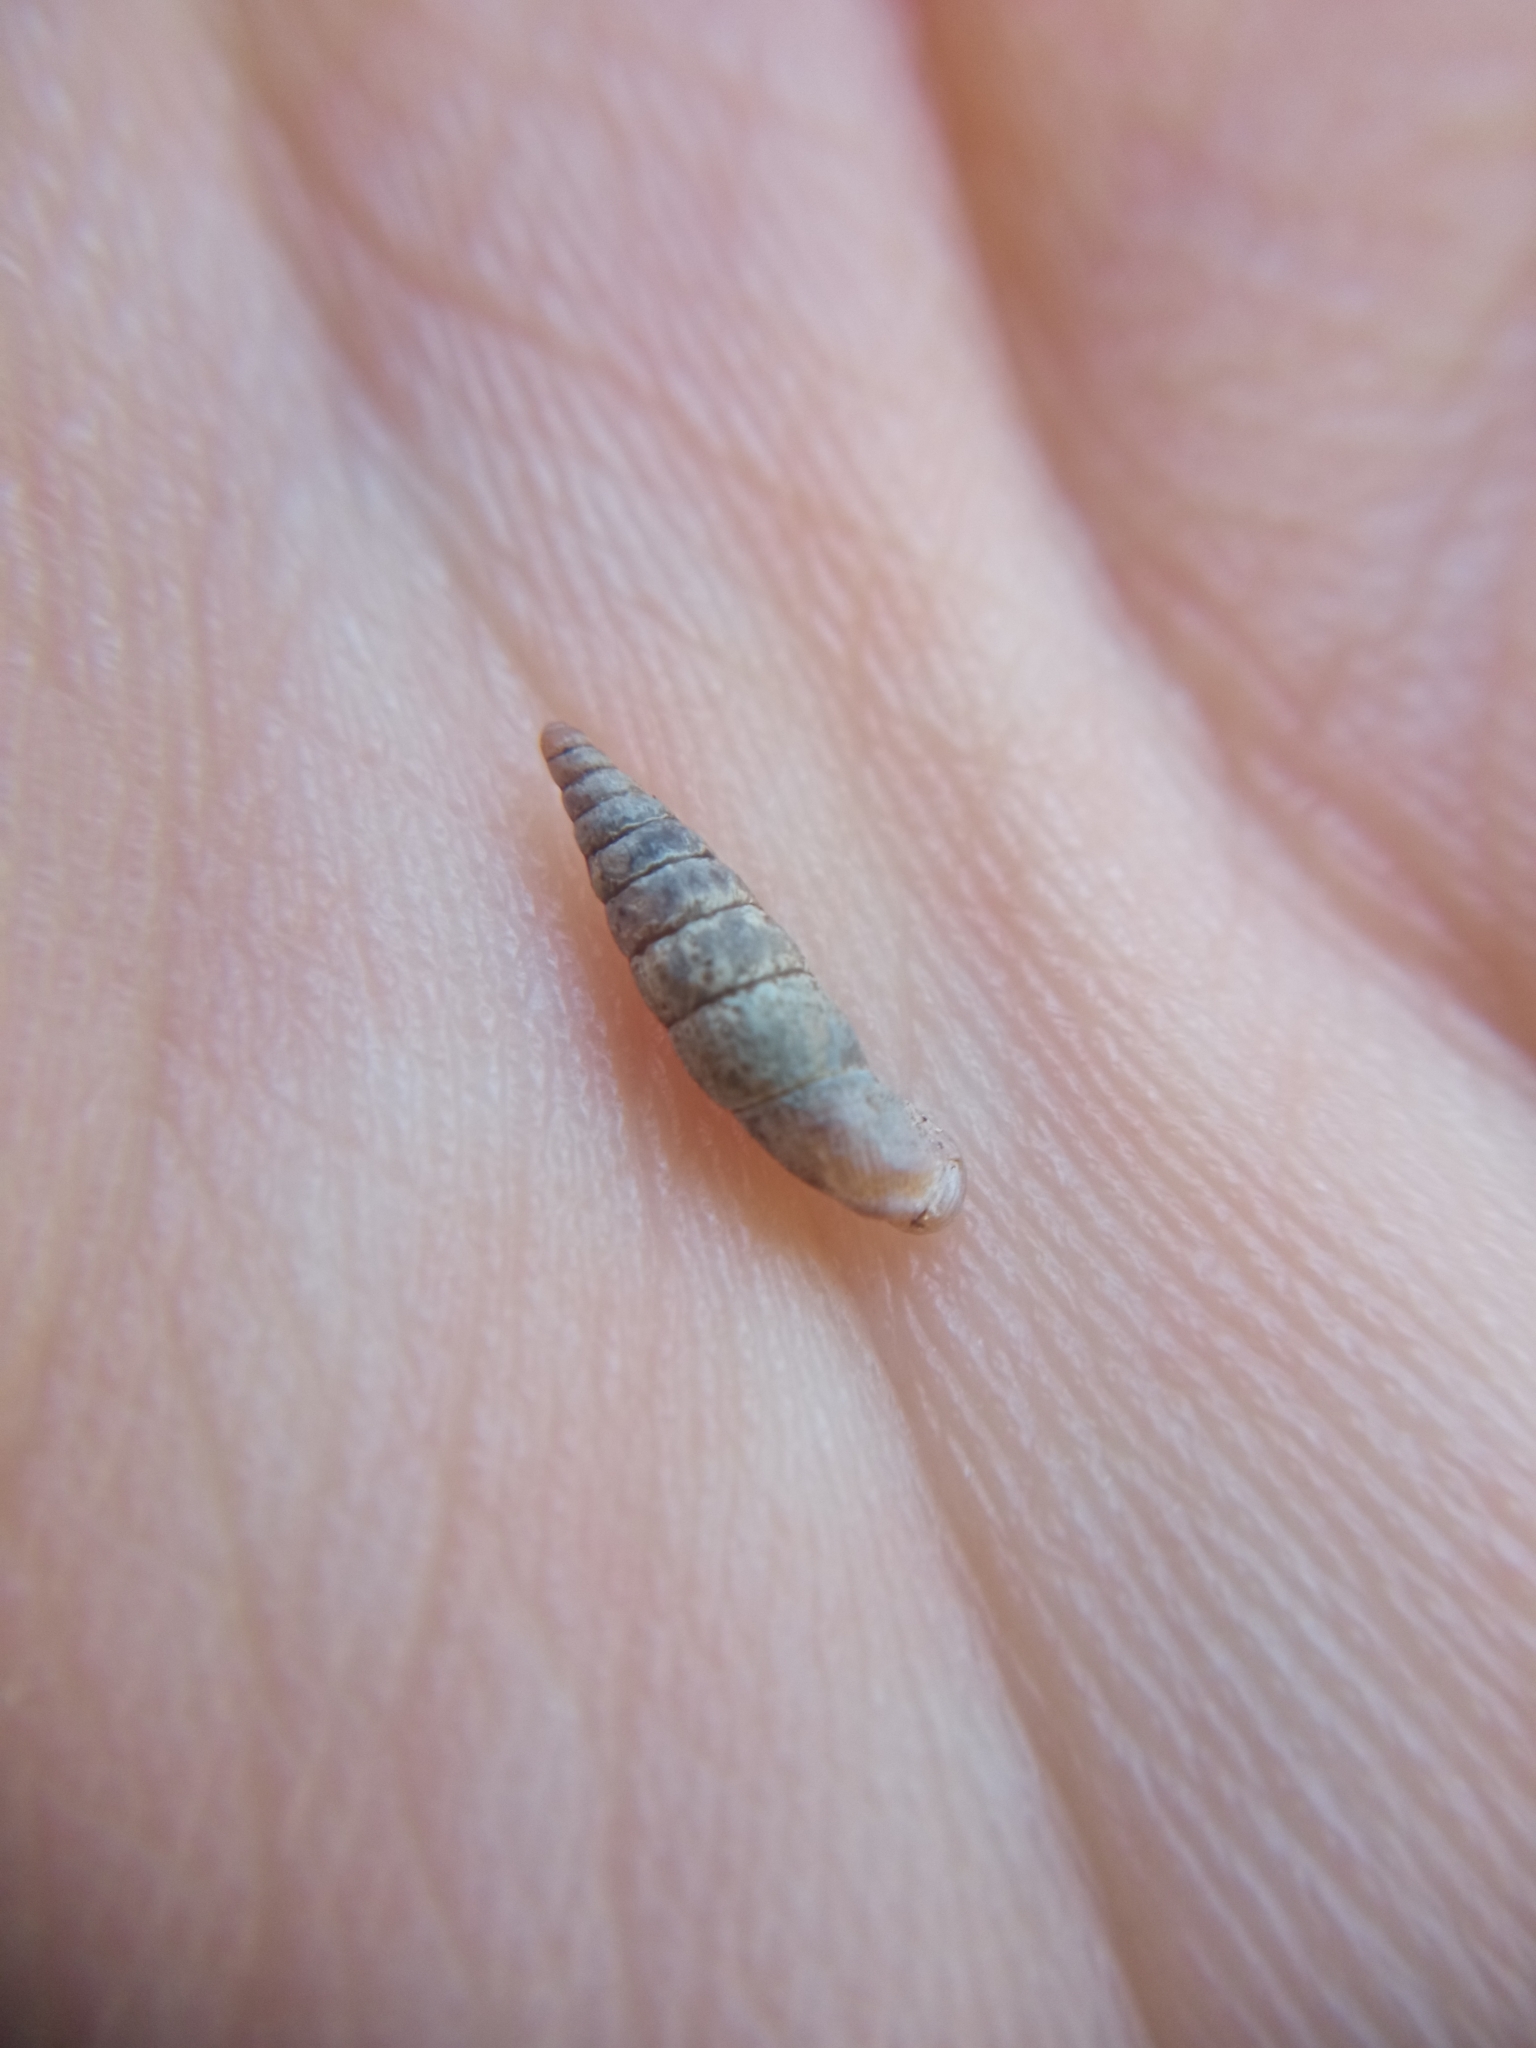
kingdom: Animalia
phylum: Mollusca
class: Gastropoda
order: Stylommatophora
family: Clausiliidae
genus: Clausilia
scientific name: Clausilia bidentata
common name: Two-toothed door snail
